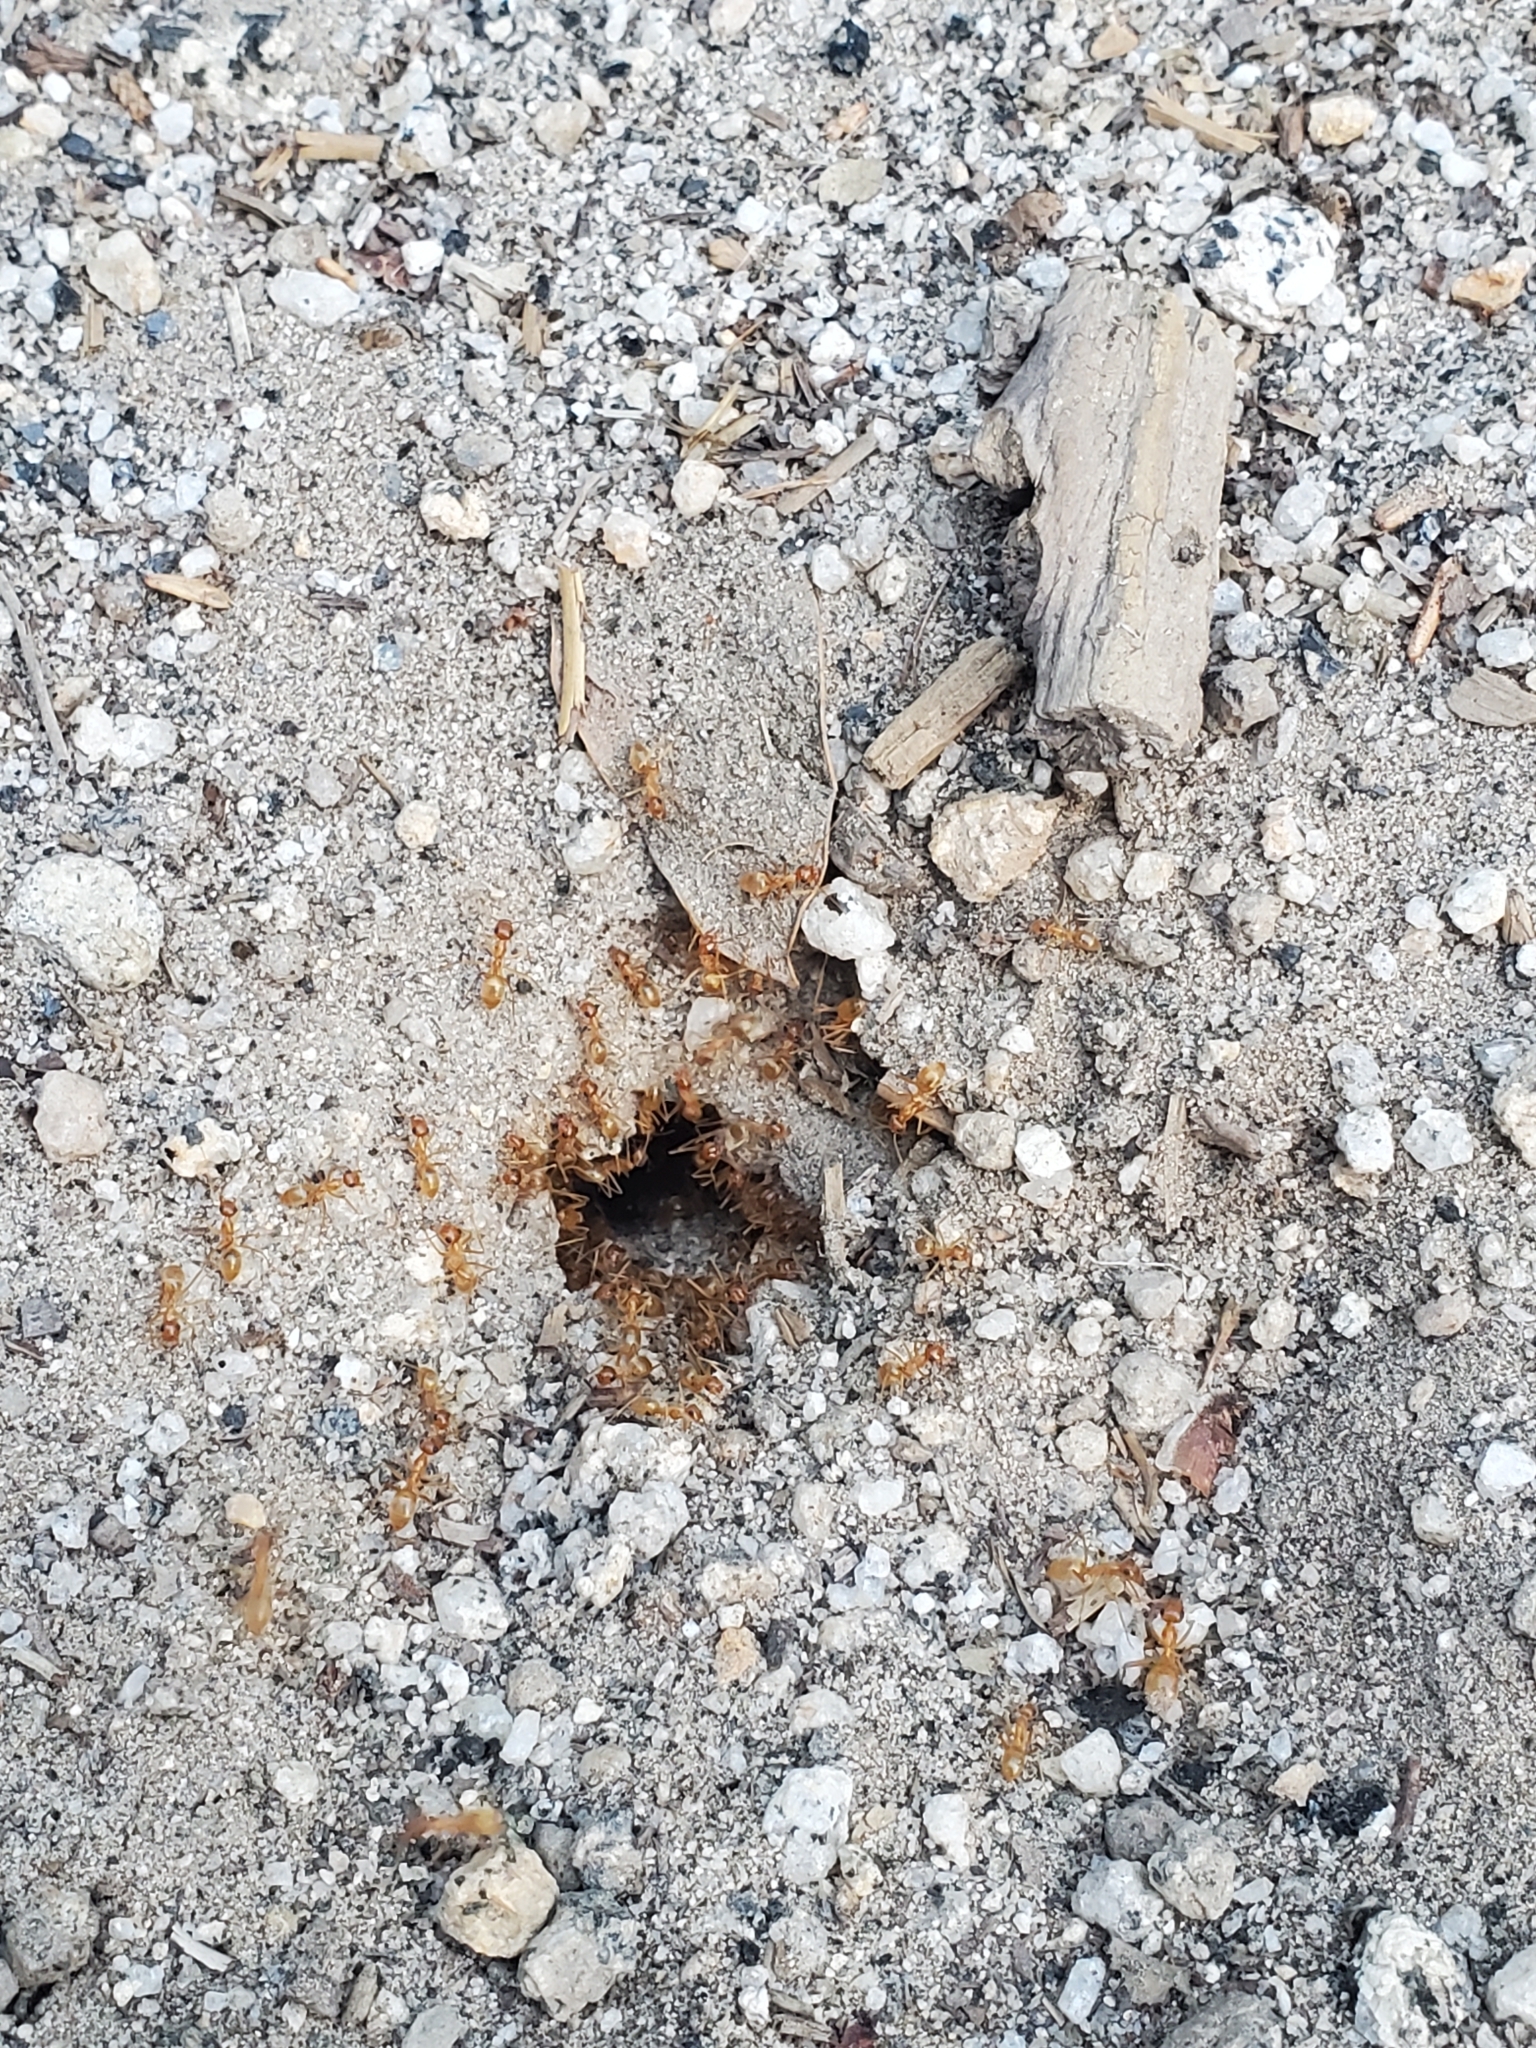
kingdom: Animalia
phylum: Arthropoda
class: Insecta
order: Hymenoptera
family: Formicidae
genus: Myrmecocystus
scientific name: Myrmecocystus testaceus
